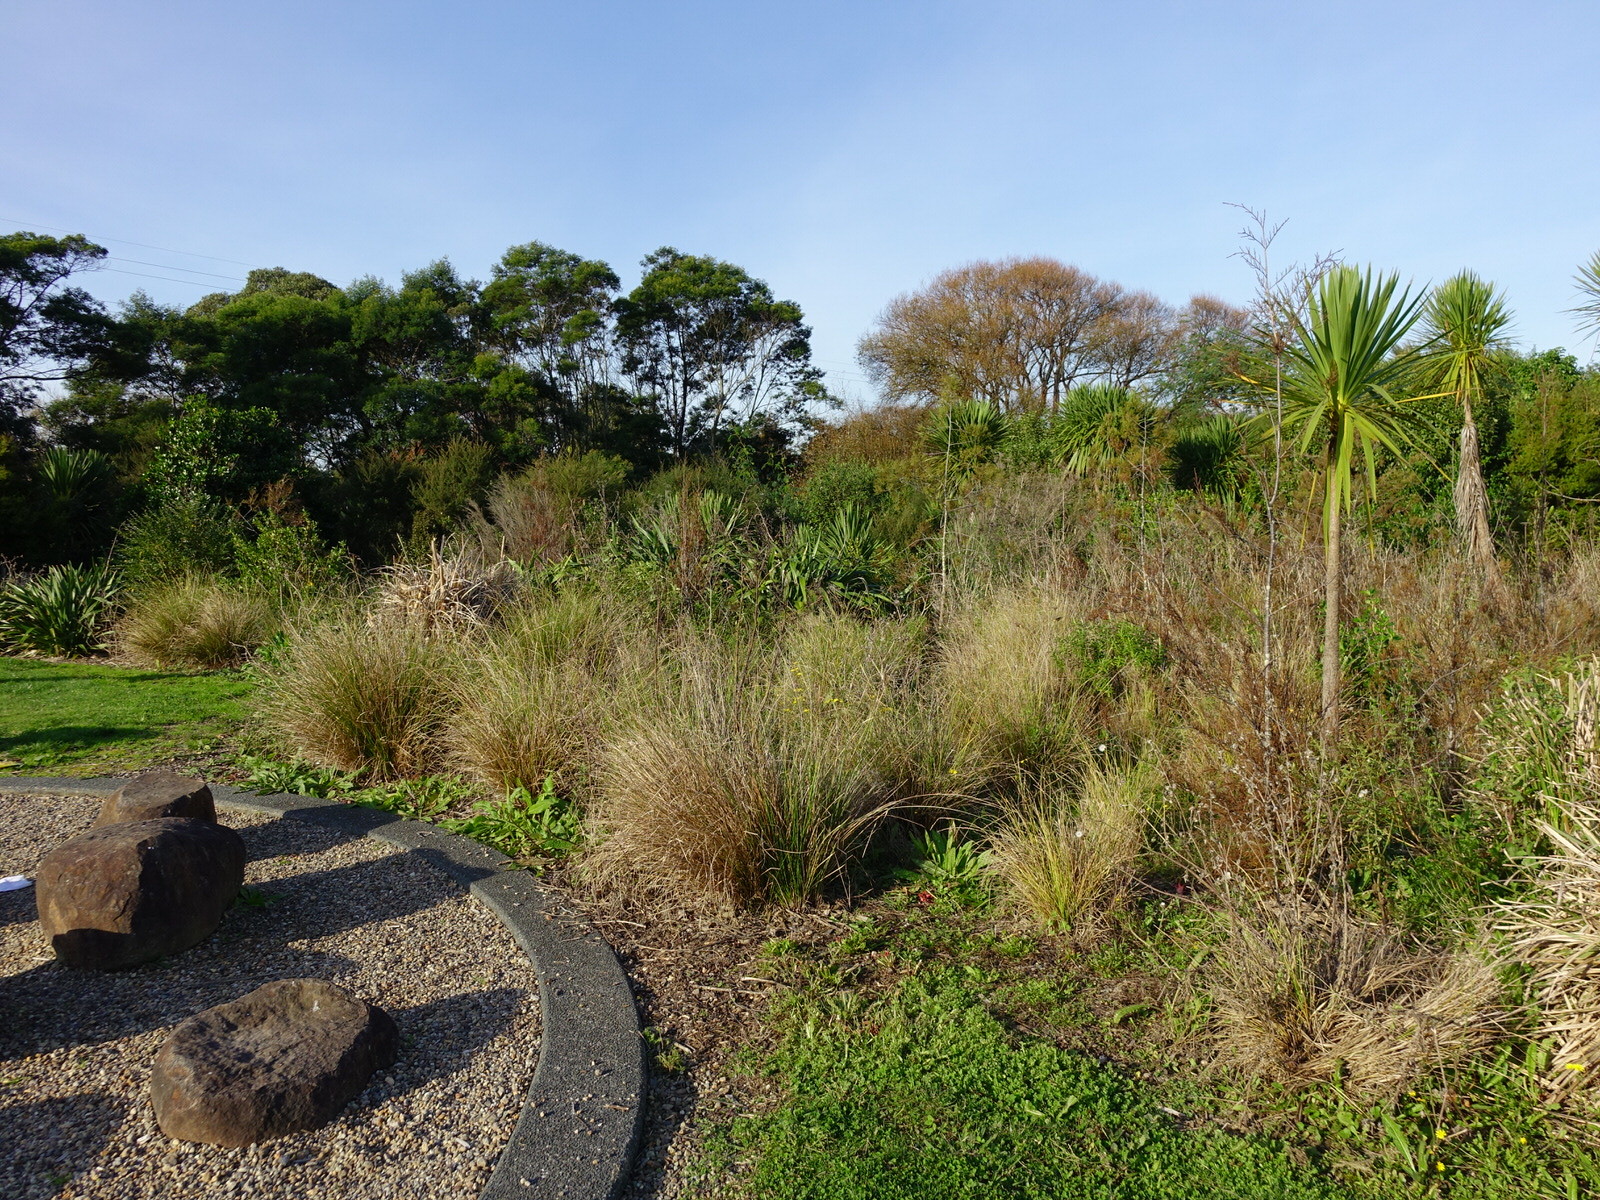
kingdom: Fungi
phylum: Basidiomycota
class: Agaricomycetes
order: Phallales
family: Phallaceae
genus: Clathrus
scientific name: Clathrus archeri
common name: Devil's fingers
